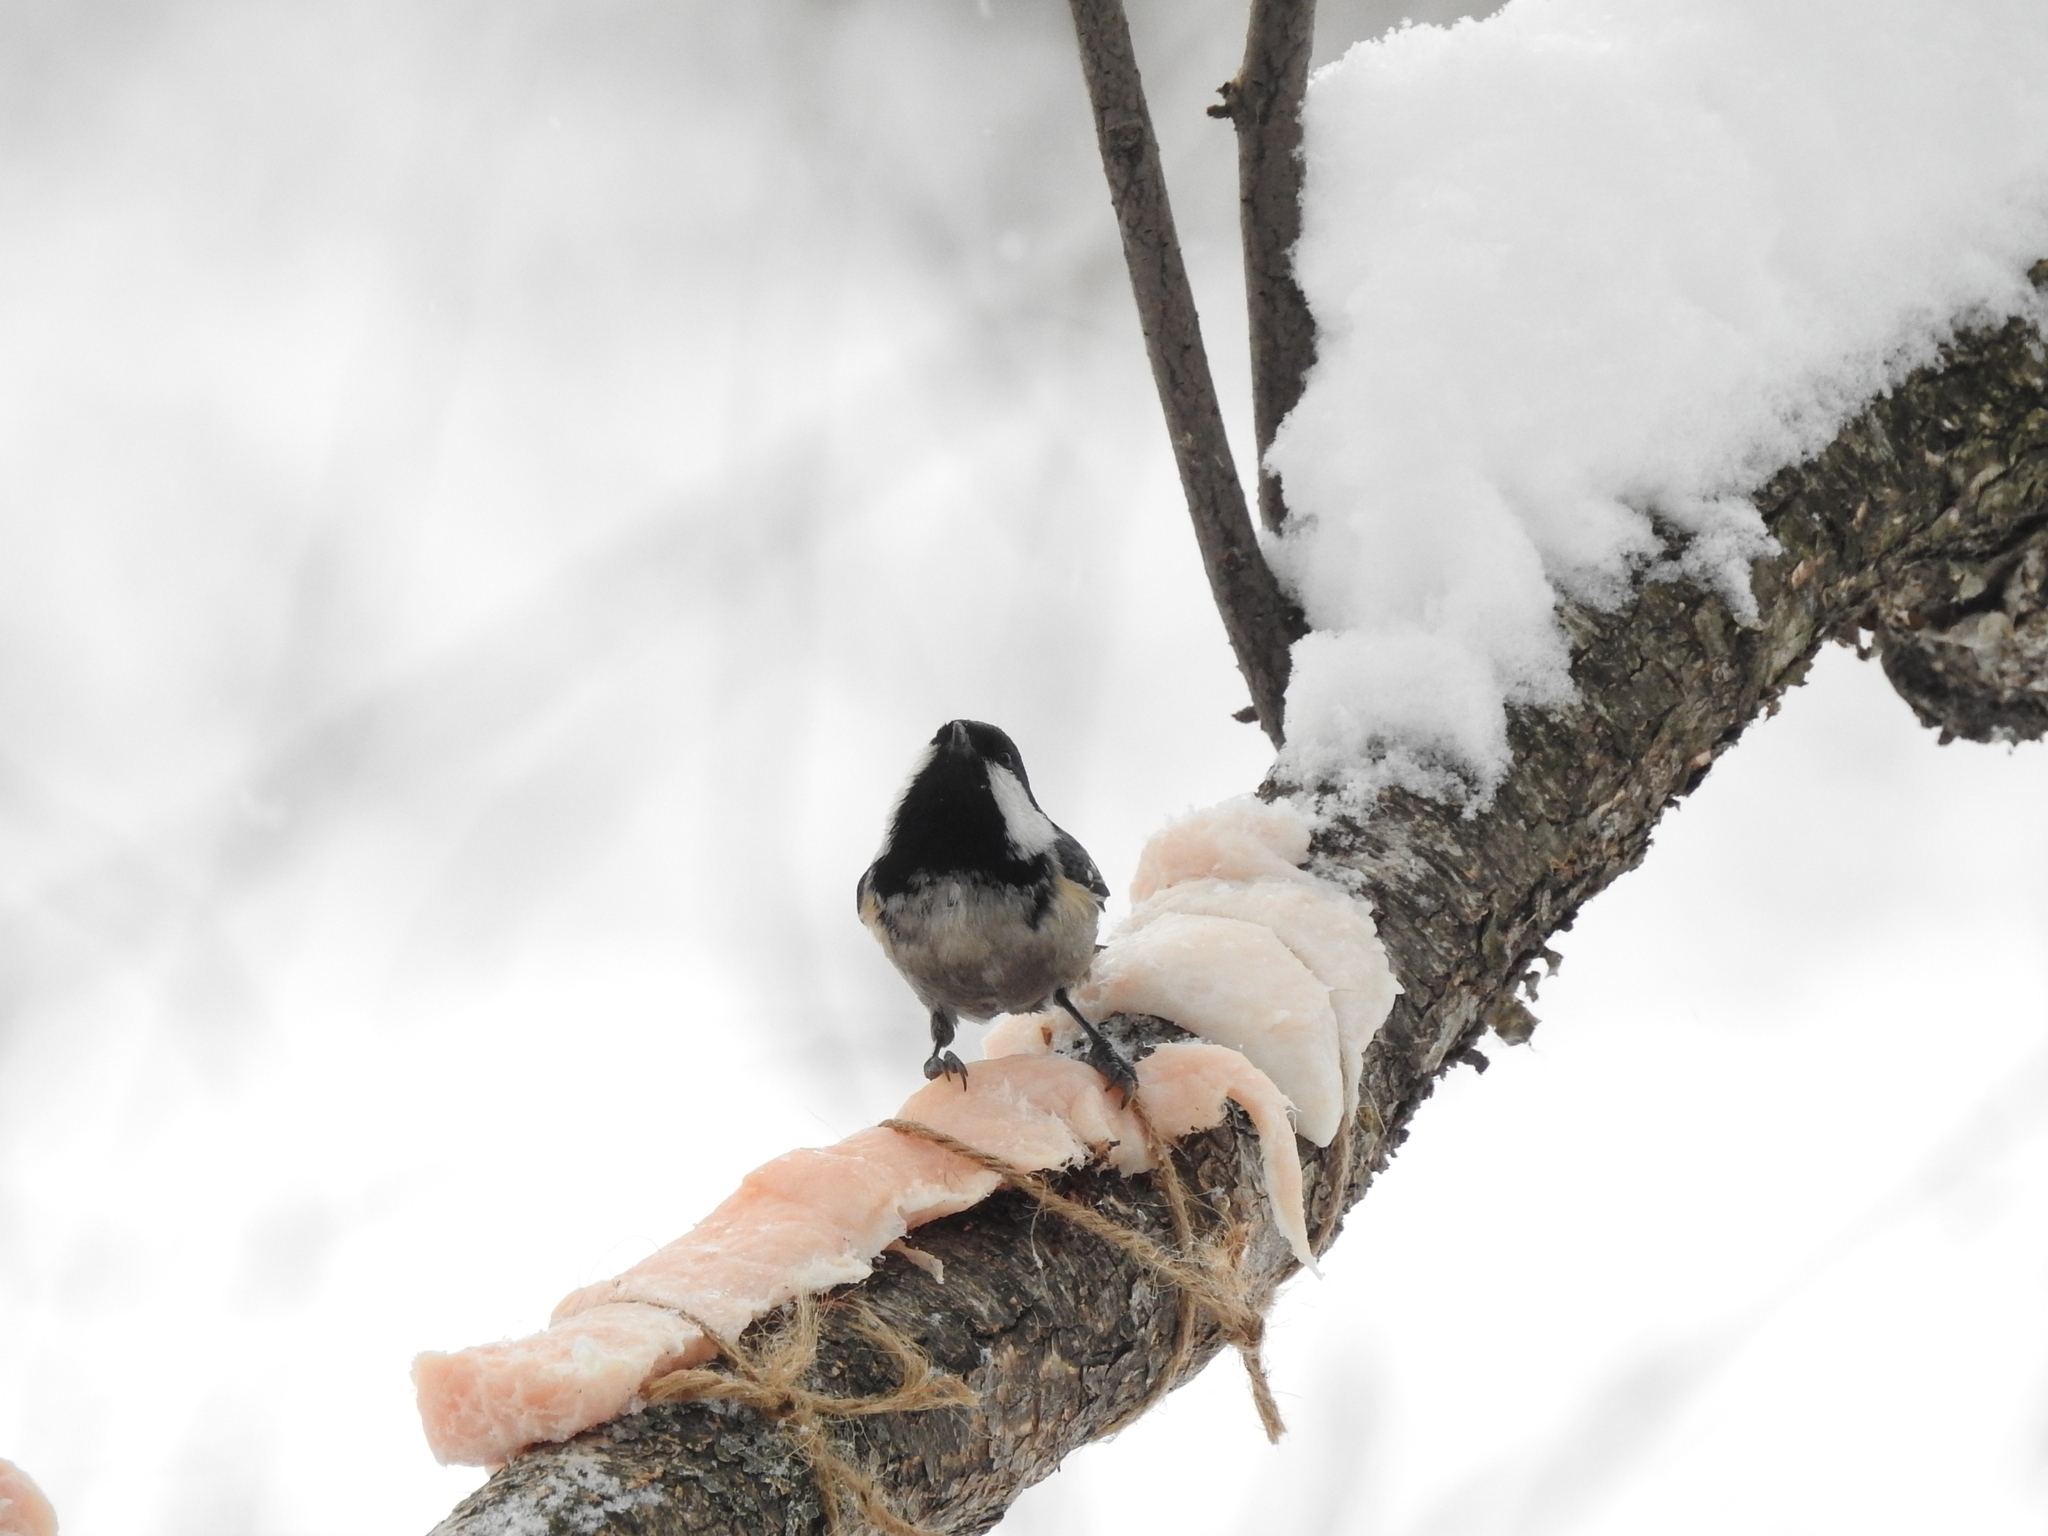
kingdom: Animalia
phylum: Chordata
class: Aves
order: Passeriformes
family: Paridae
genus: Periparus
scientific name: Periparus ater
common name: Coal tit
